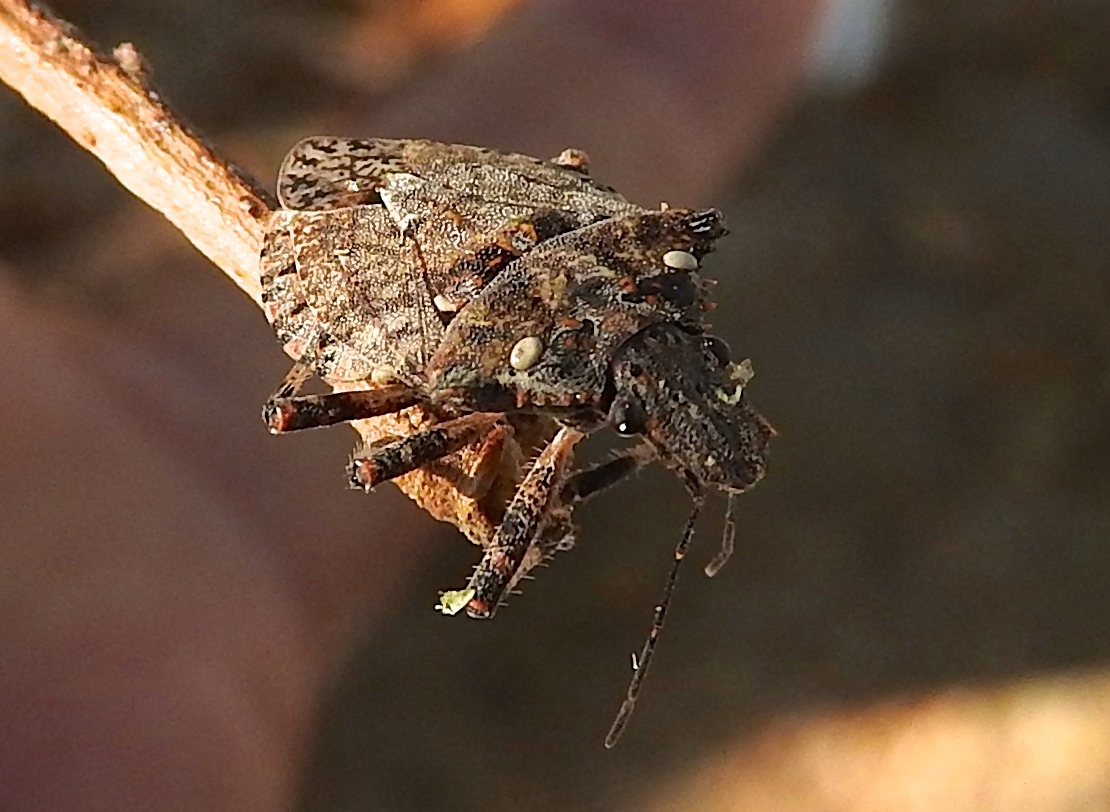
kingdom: Animalia
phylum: Arthropoda
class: Insecta
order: Hemiptera
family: Pentatomidae
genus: Brochymena
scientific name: Brochymena
